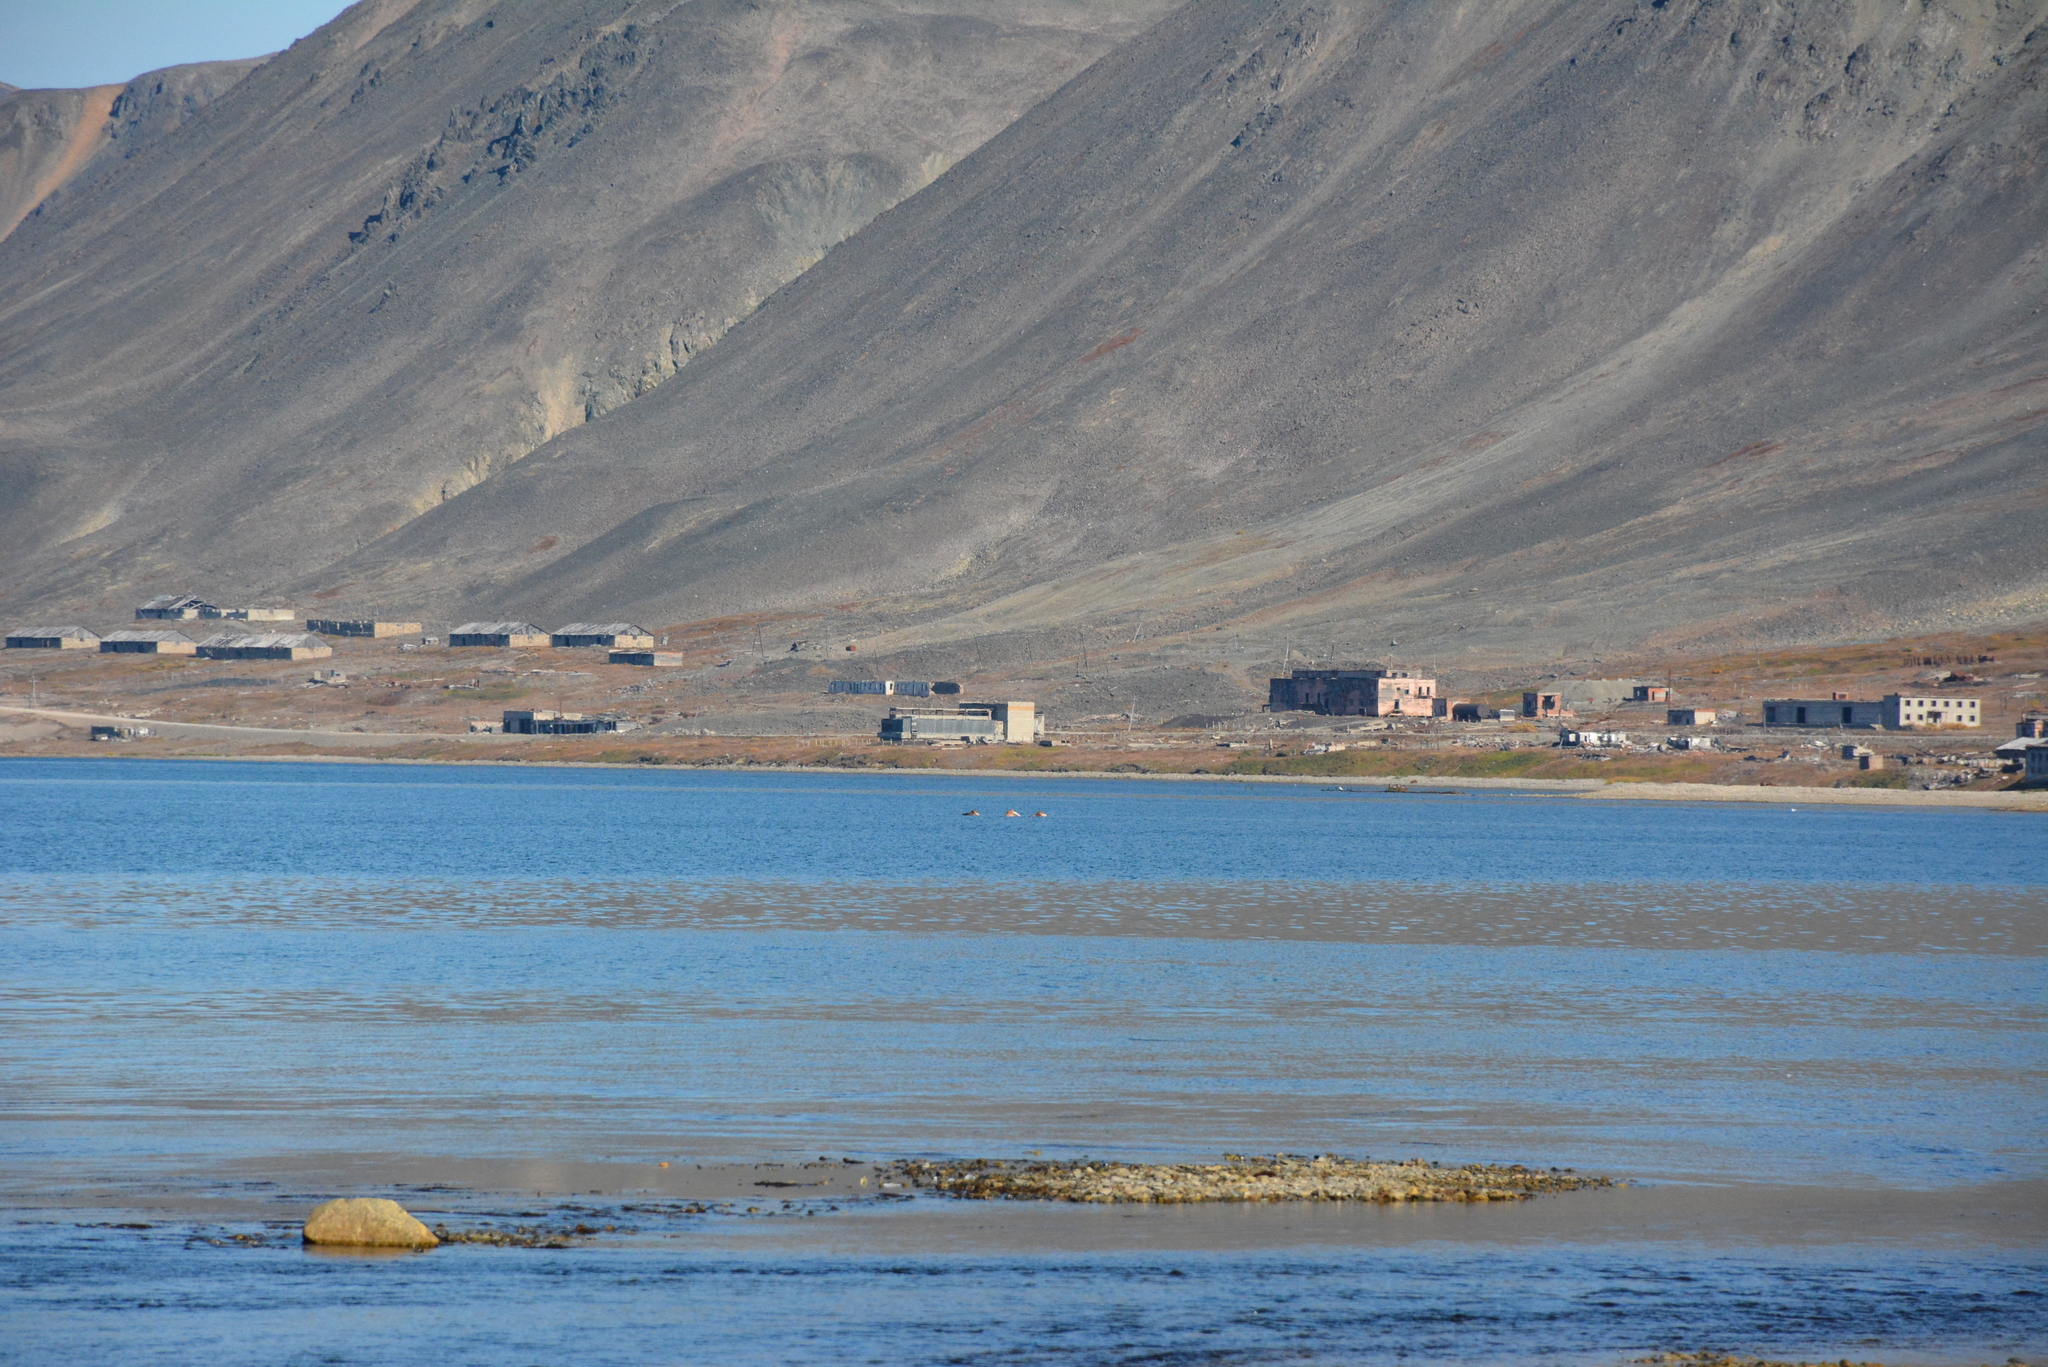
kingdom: Animalia
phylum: Chordata
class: Mammalia
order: Carnivora
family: Odobenidae
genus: Odobenus
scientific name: Odobenus rosmarus
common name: Walrus
